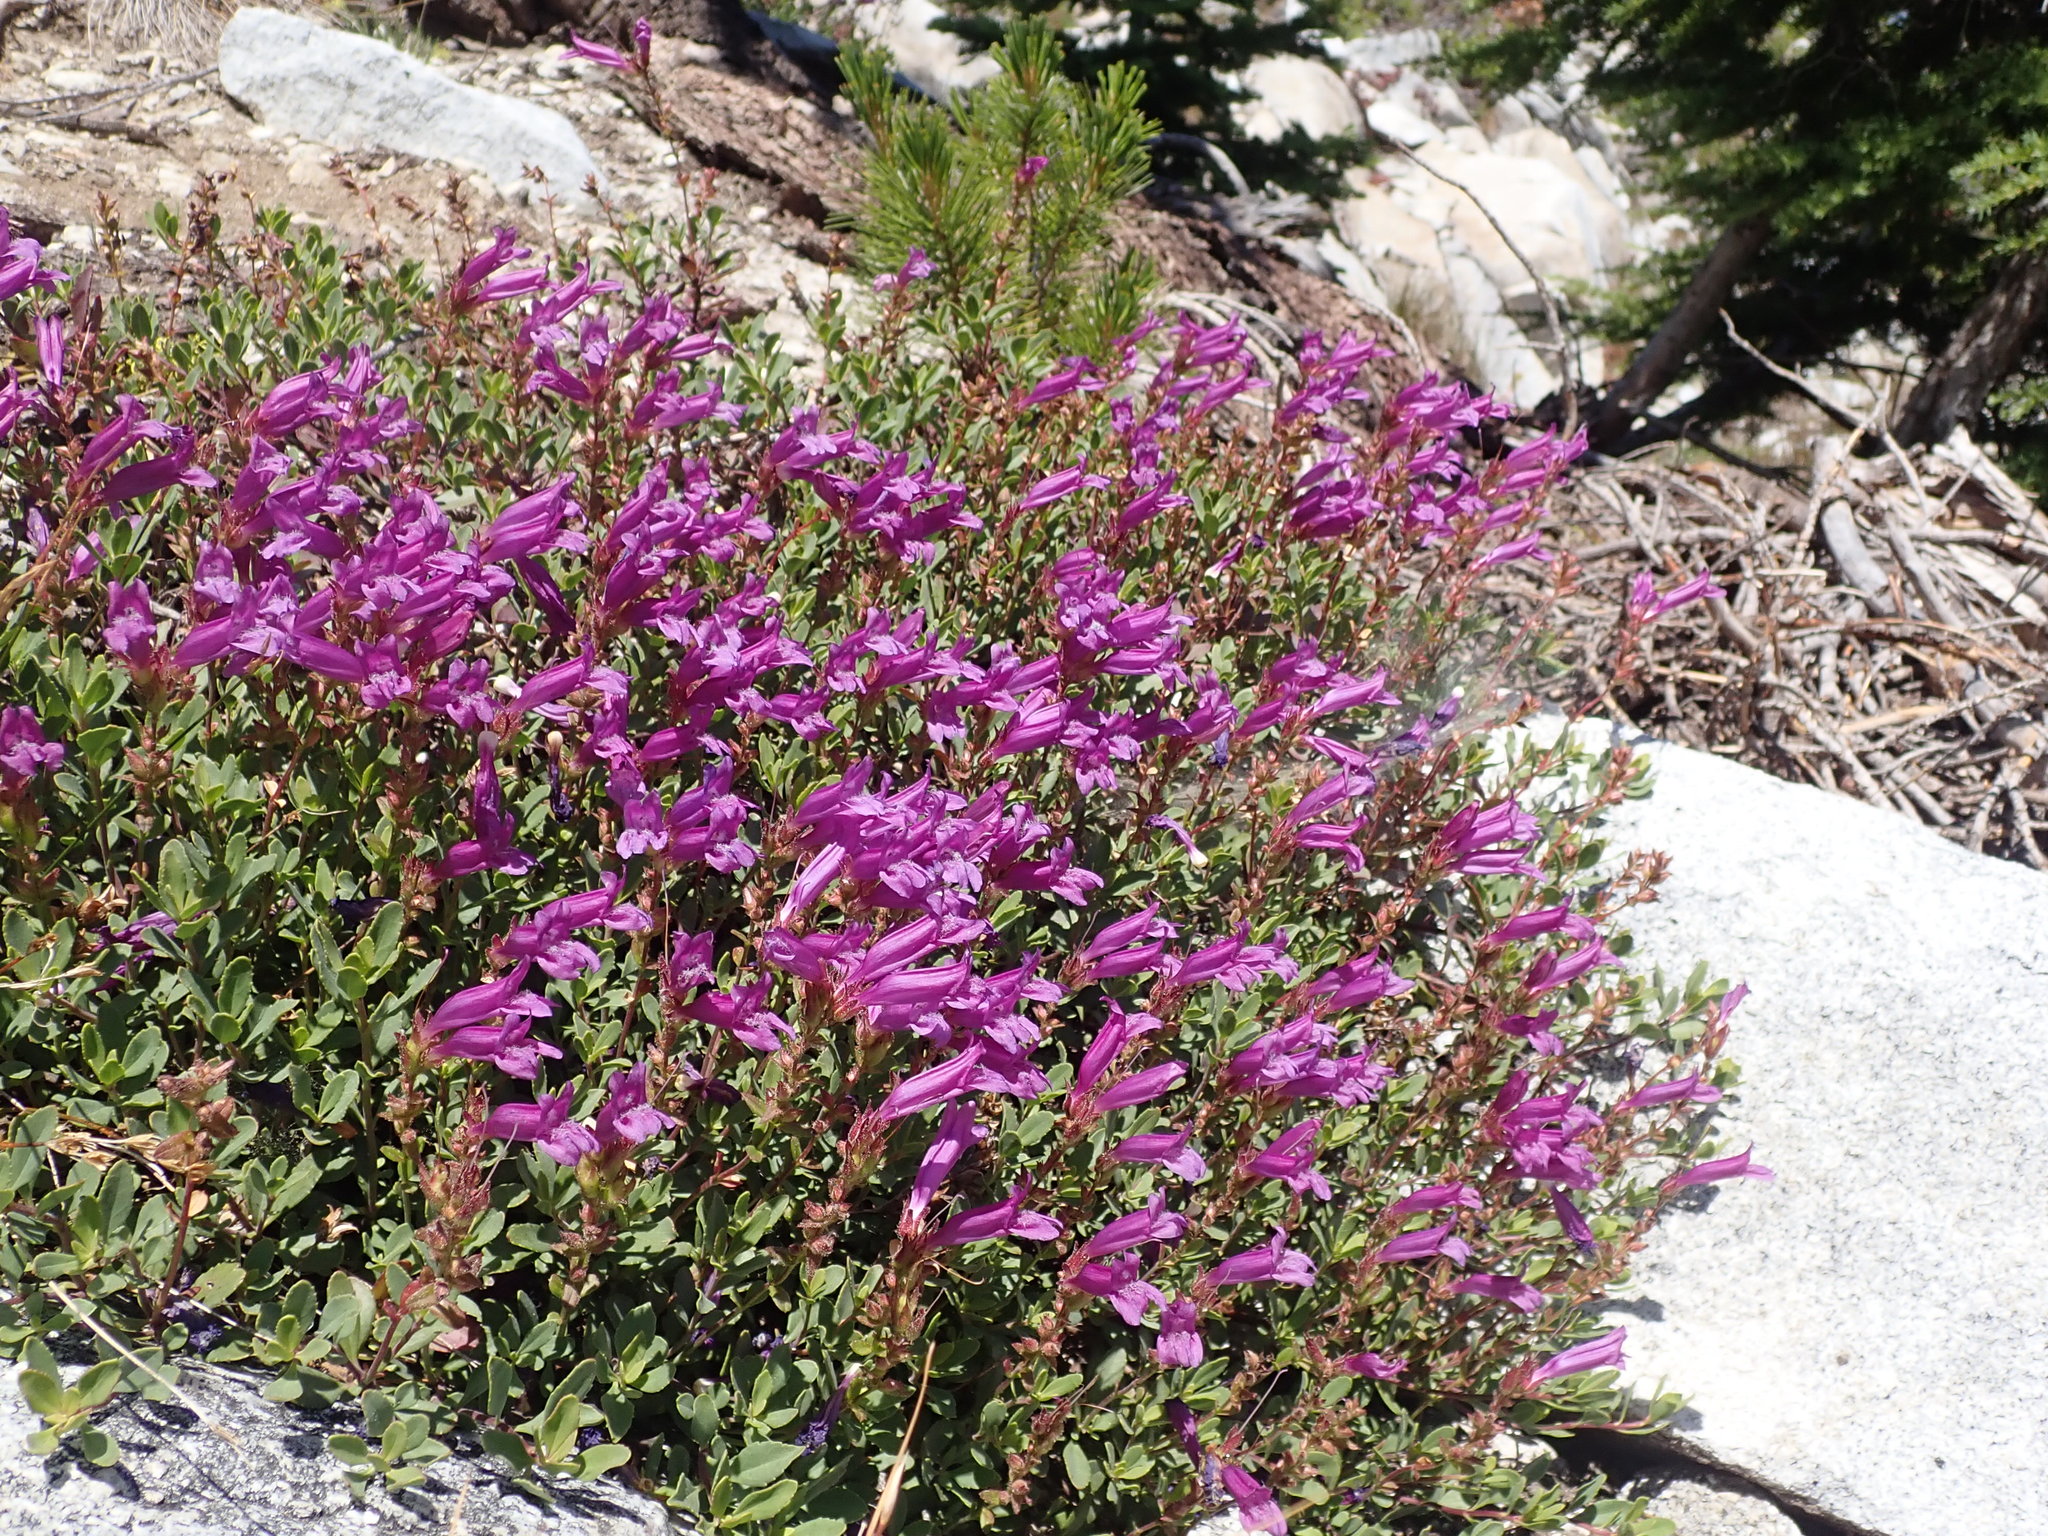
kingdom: Plantae
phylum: Tracheophyta
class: Magnoliopsida
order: Lamiales
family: Plantaginaceae
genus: Penstemon
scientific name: Penstemon newberryi
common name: Mountain-pride
